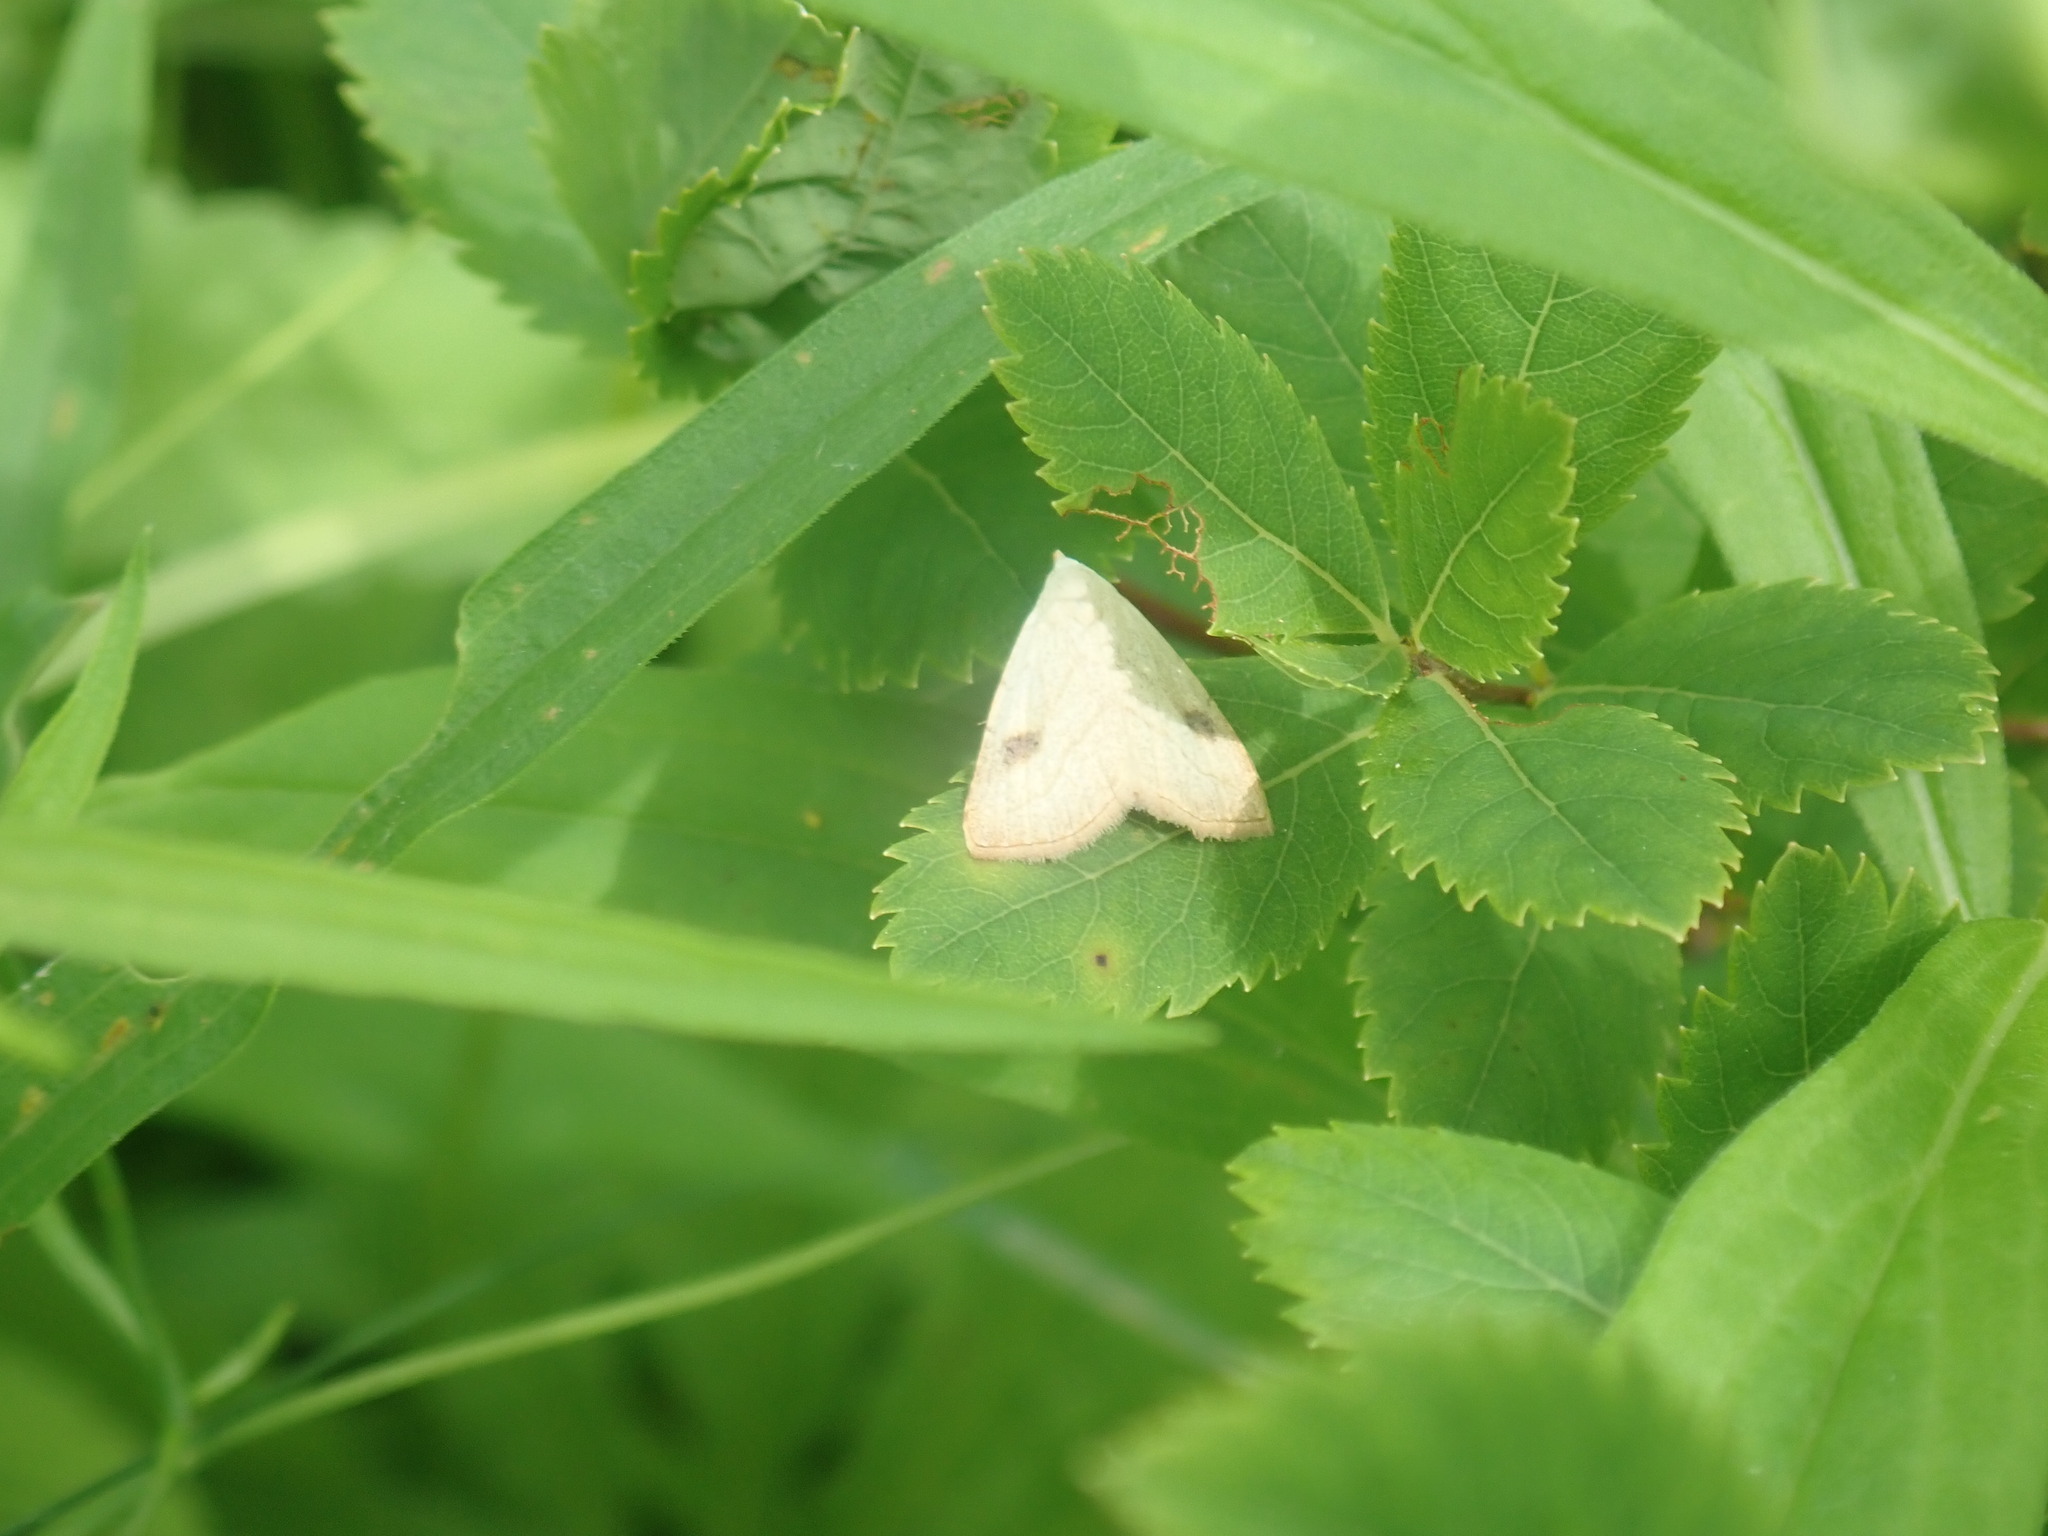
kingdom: Animalia
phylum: Arthropoda
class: Insecta
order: Lepidoptera
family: Erebidae
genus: Rivula
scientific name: Rivula propinqualis
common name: Spotted grass moth
